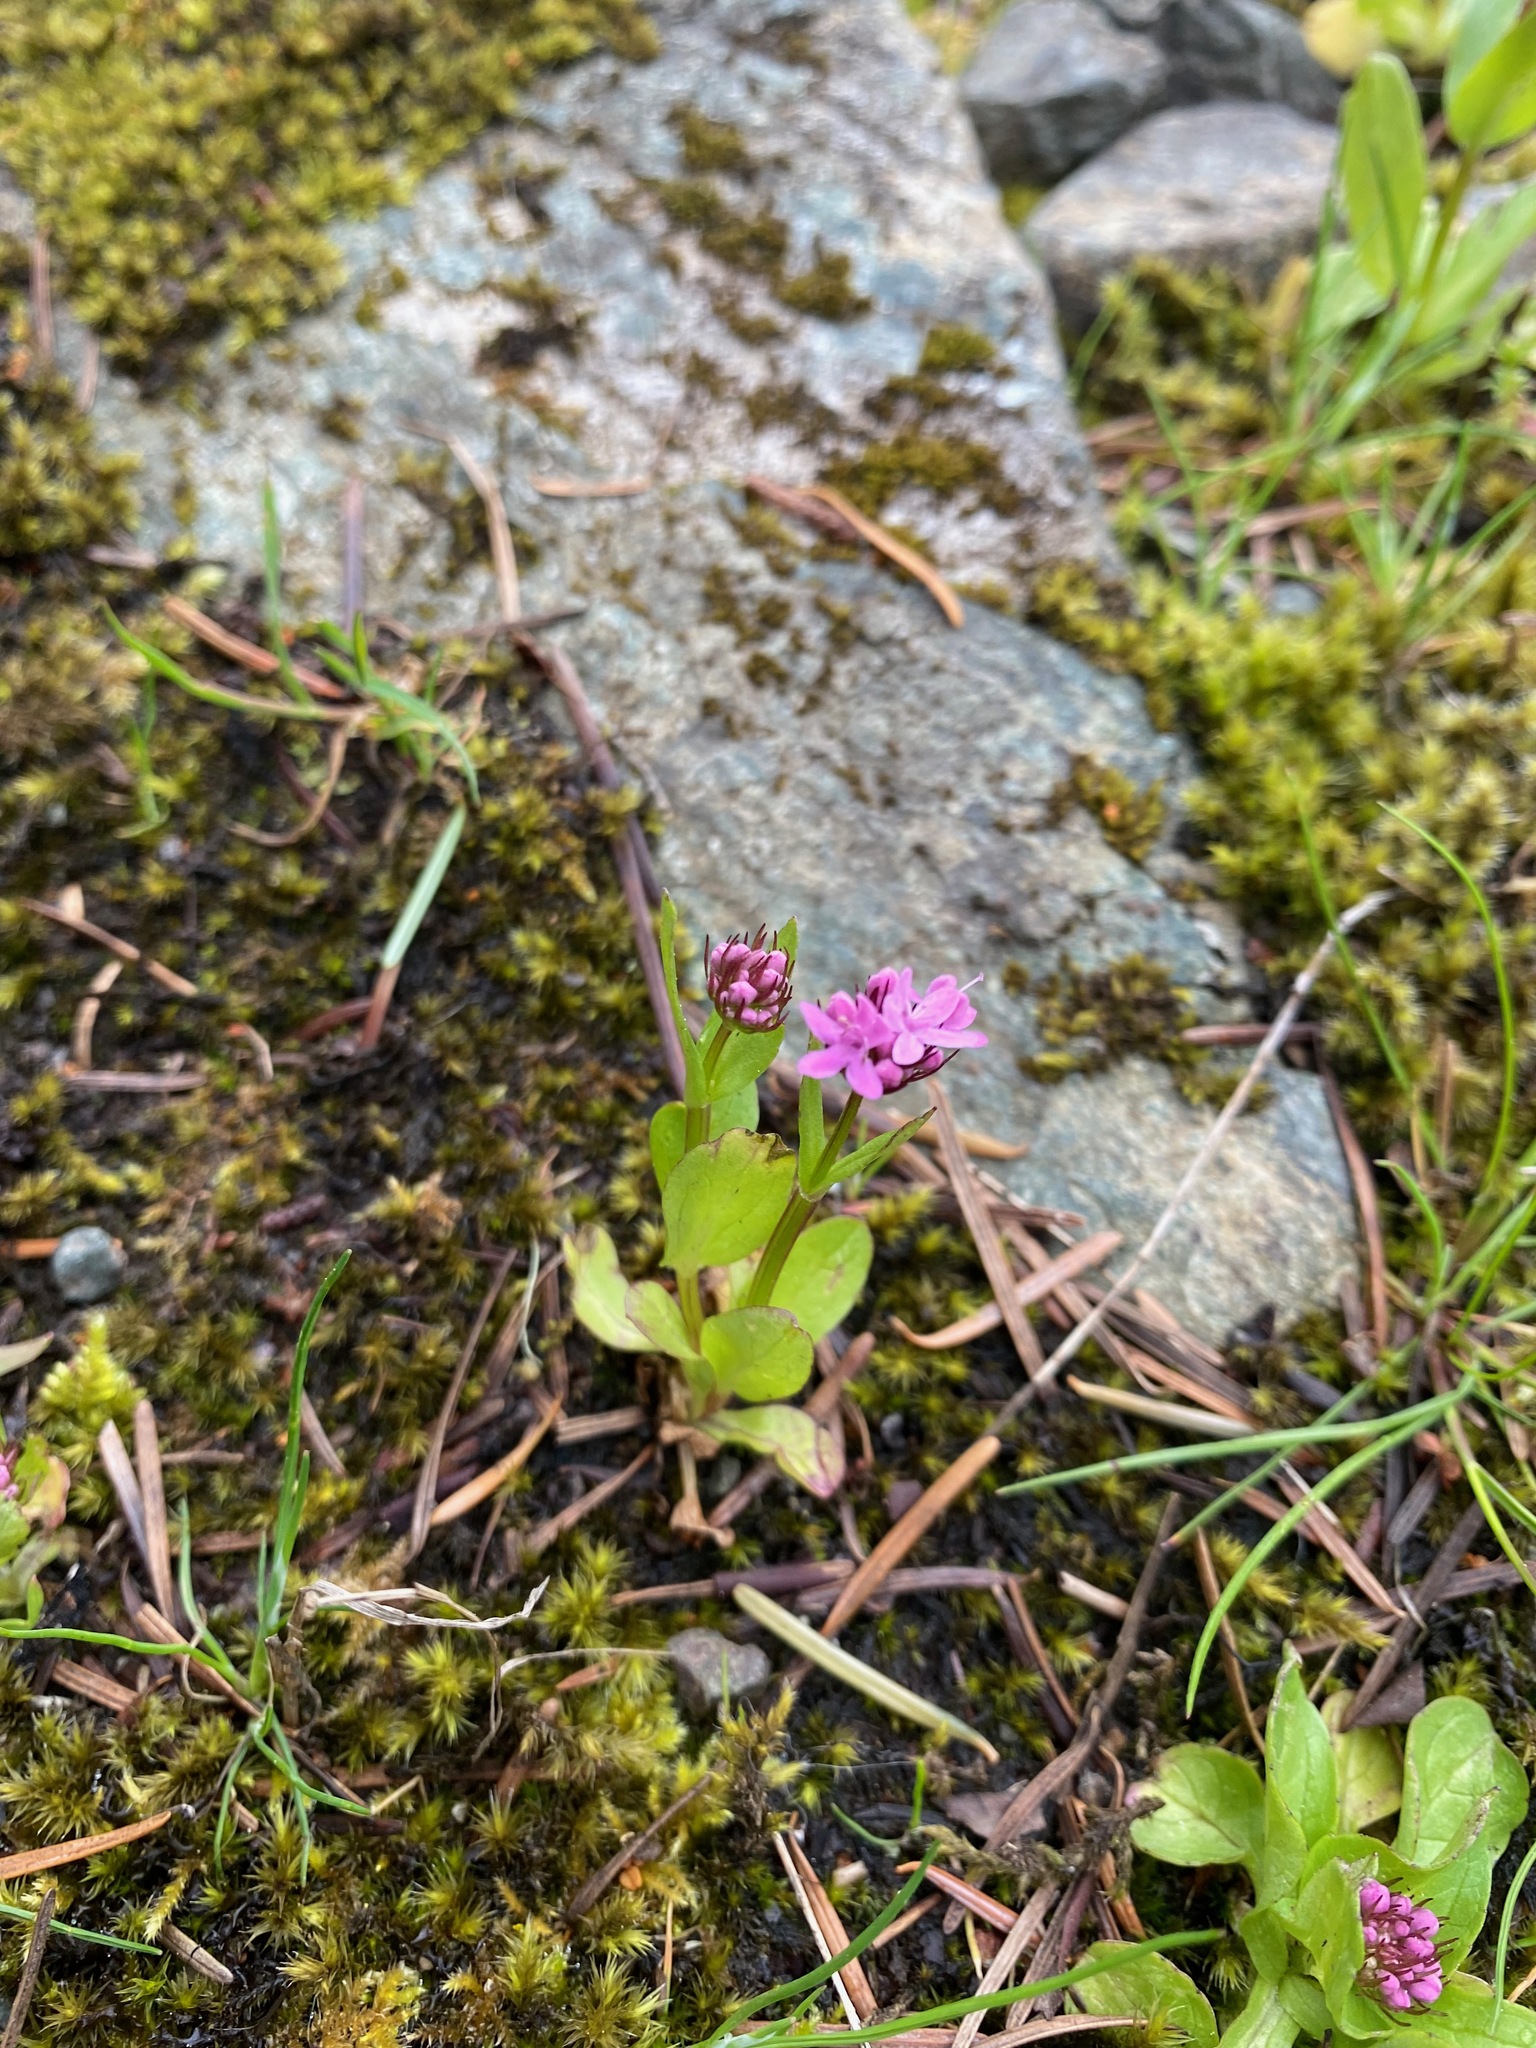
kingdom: Plantae
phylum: Tracheophyta
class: Magnoliopsida
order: Dipsacales
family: Caprifoliaceae
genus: Plectritis
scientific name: Plectritis congesta
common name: Pink plectritis
